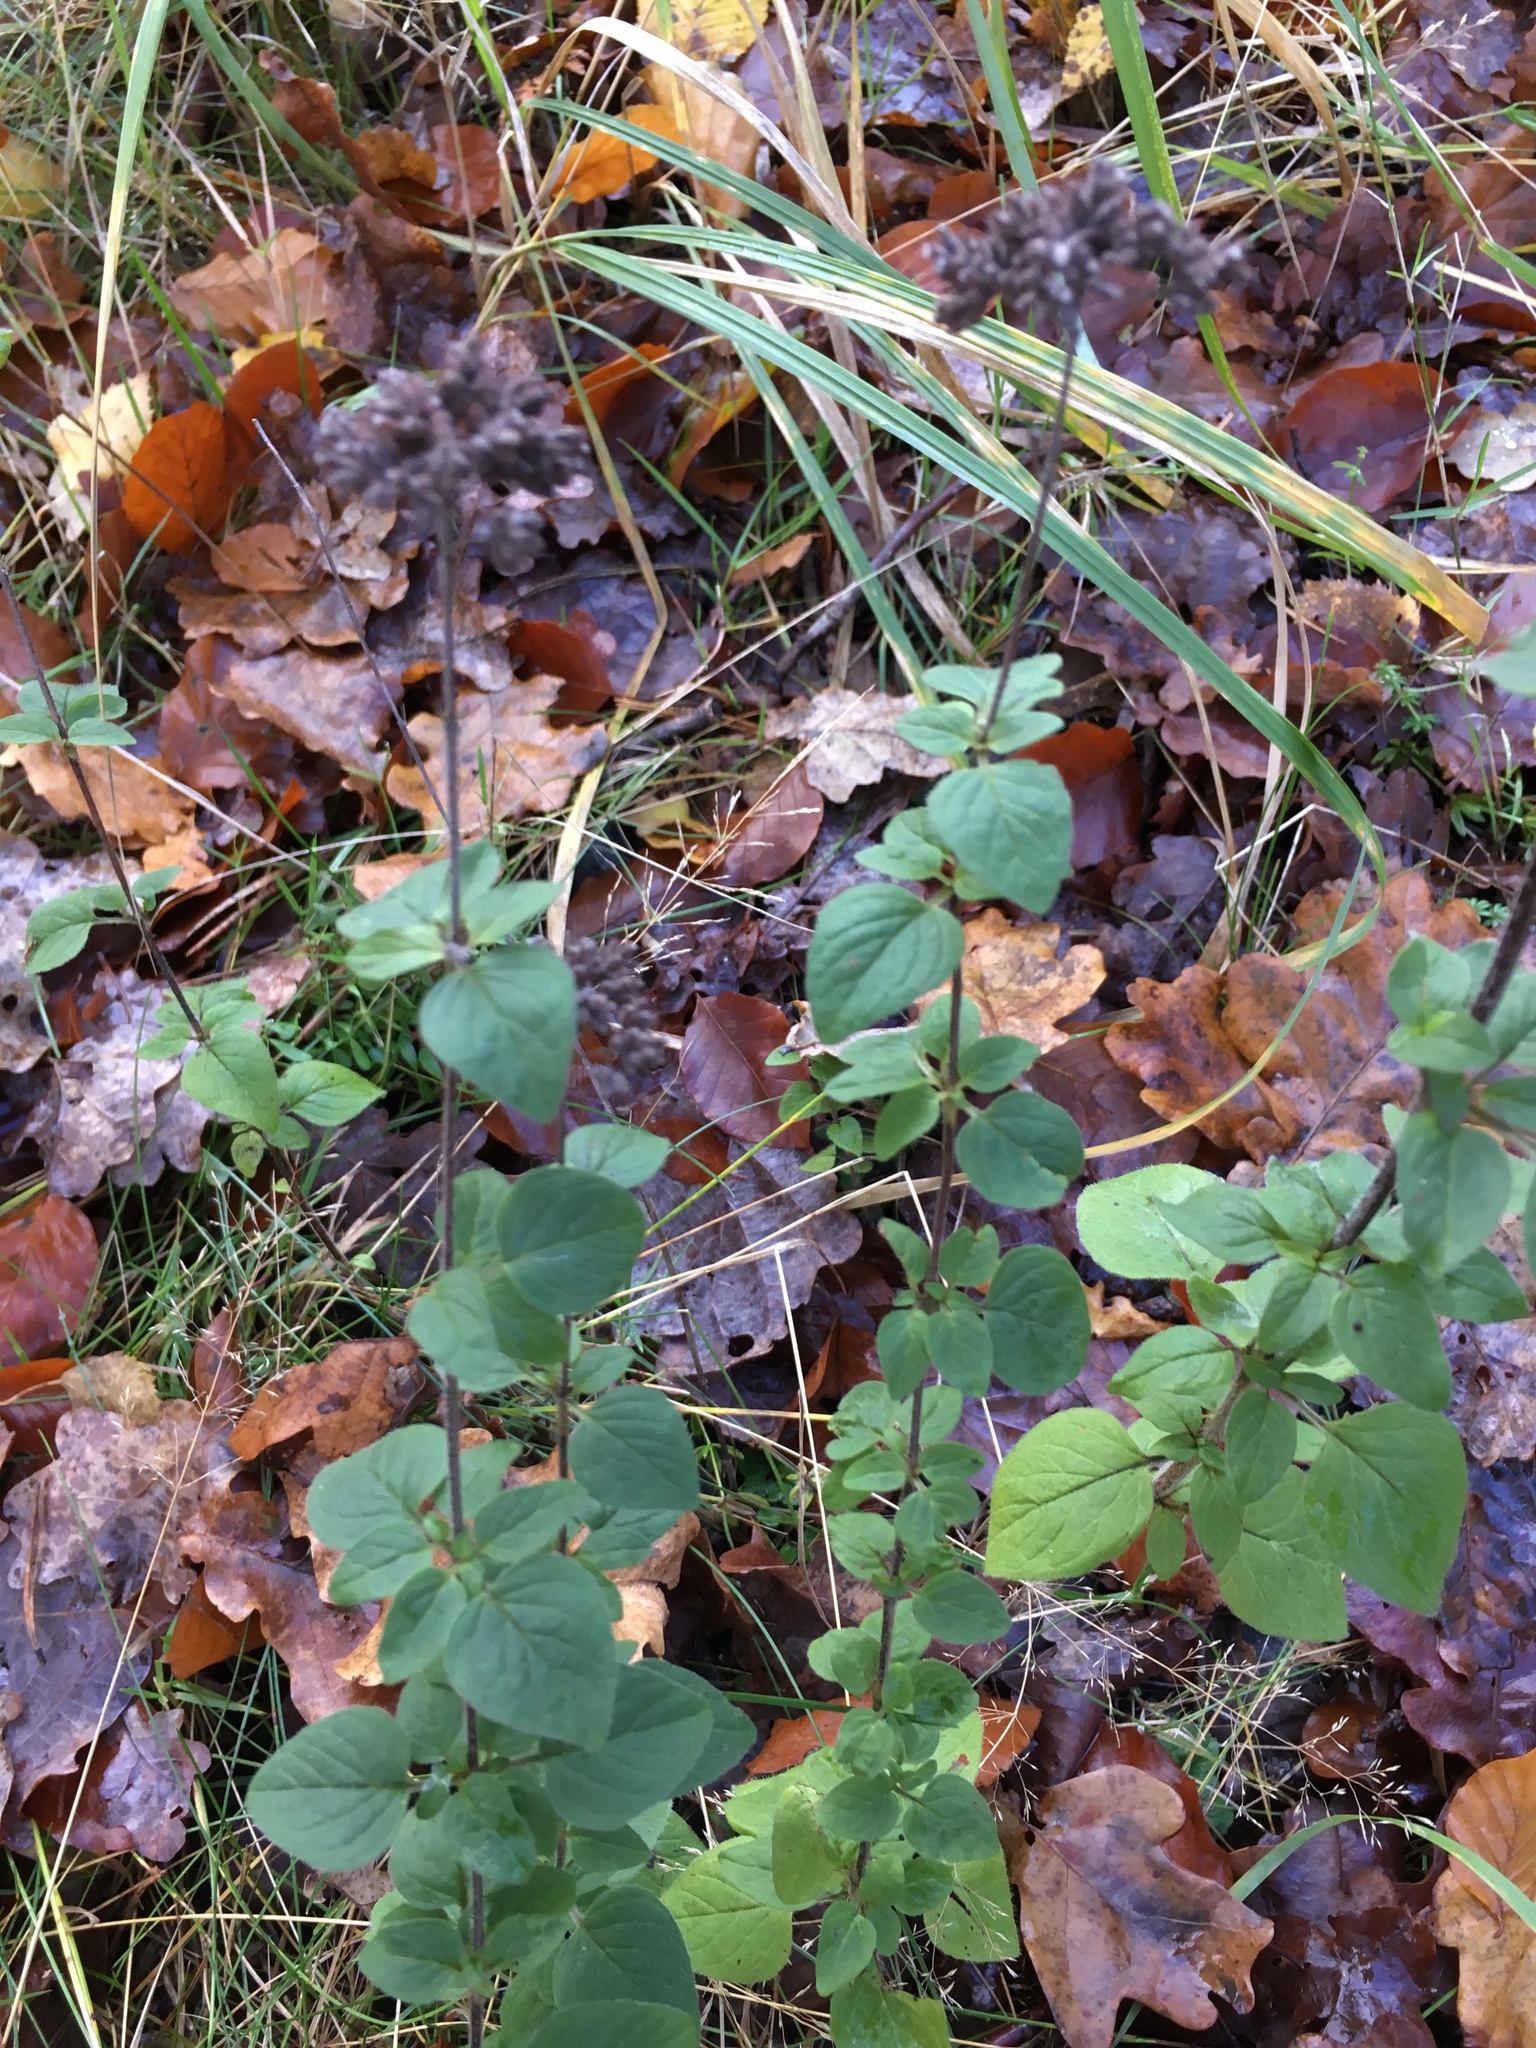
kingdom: Plantae
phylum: Tracheophyta
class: Magnoliopsida
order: Lamiales
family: Lamiaceae
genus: Origanum
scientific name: Origanum vulgare
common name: Wild marjoram
